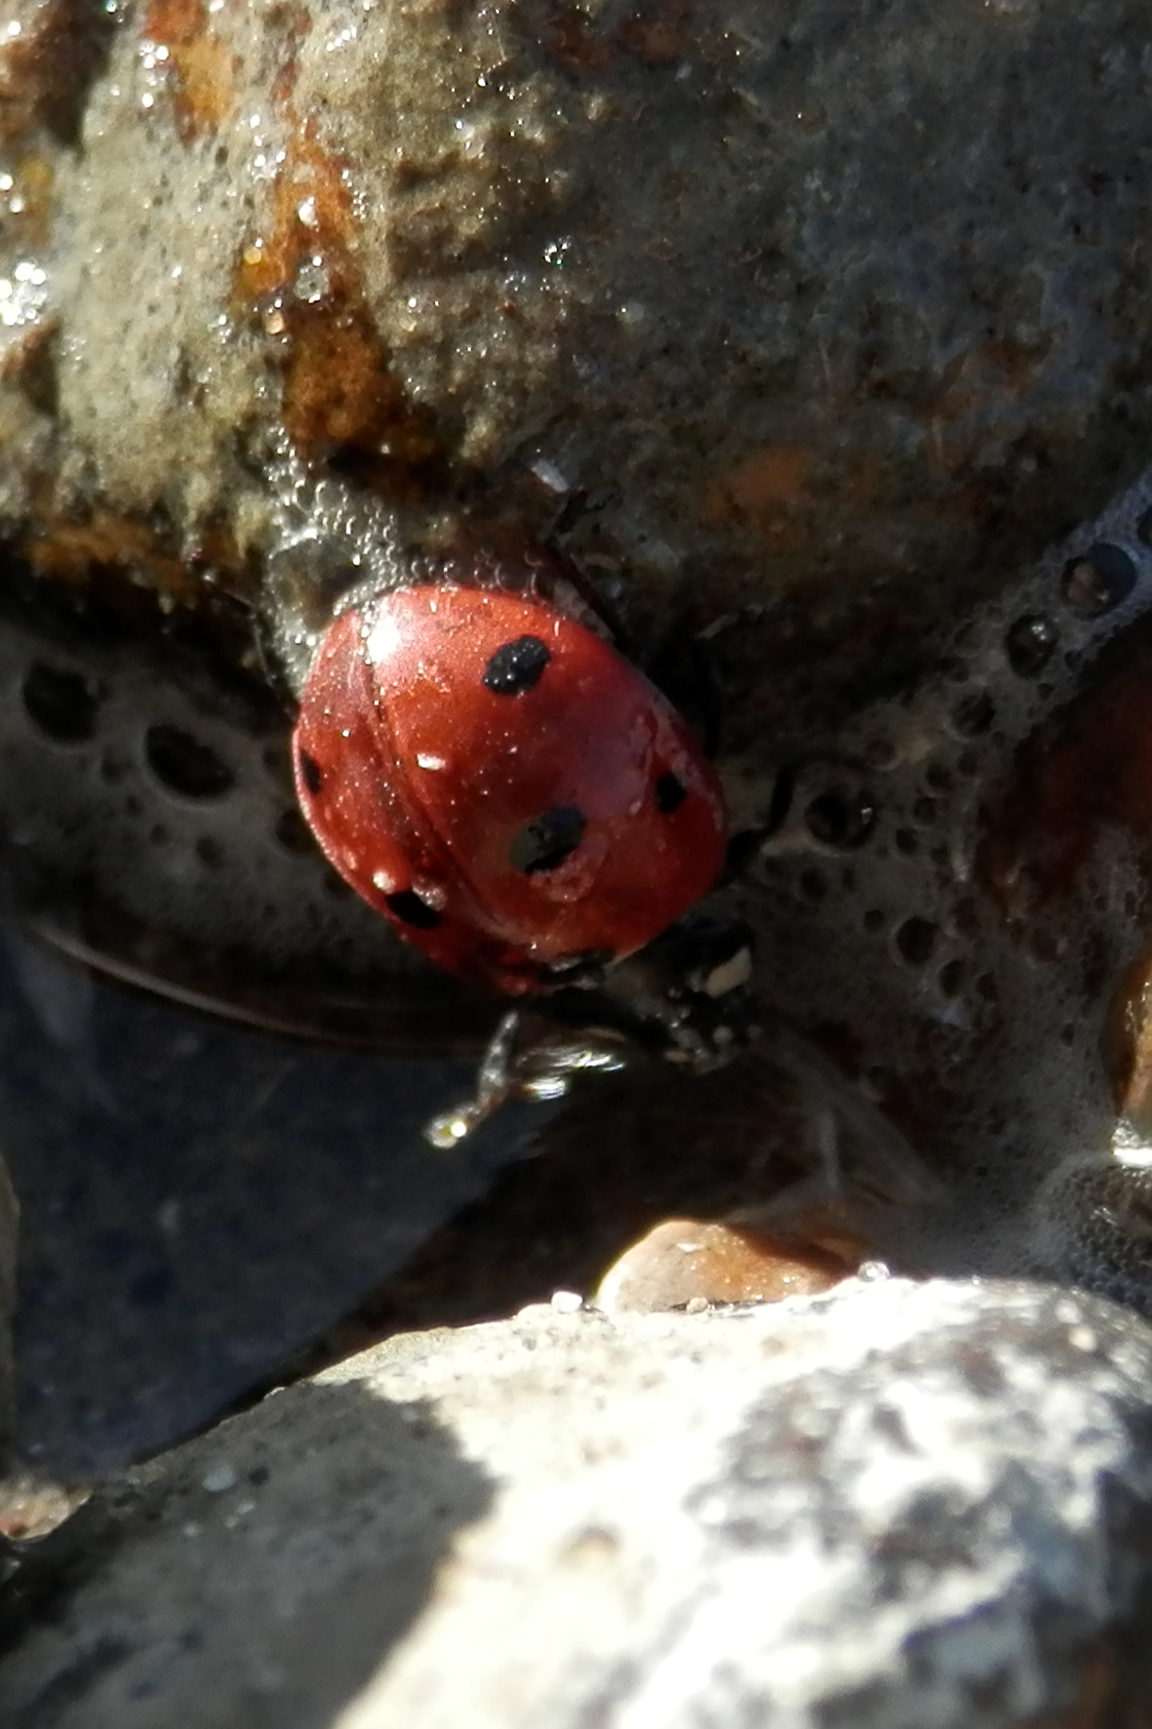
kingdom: Animalia
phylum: Arthropoda
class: Insecta
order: Coleoptera
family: Coccinellidae
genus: Coccinella
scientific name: Coccinella septempunctata
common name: Sevenspotted lady beetle
